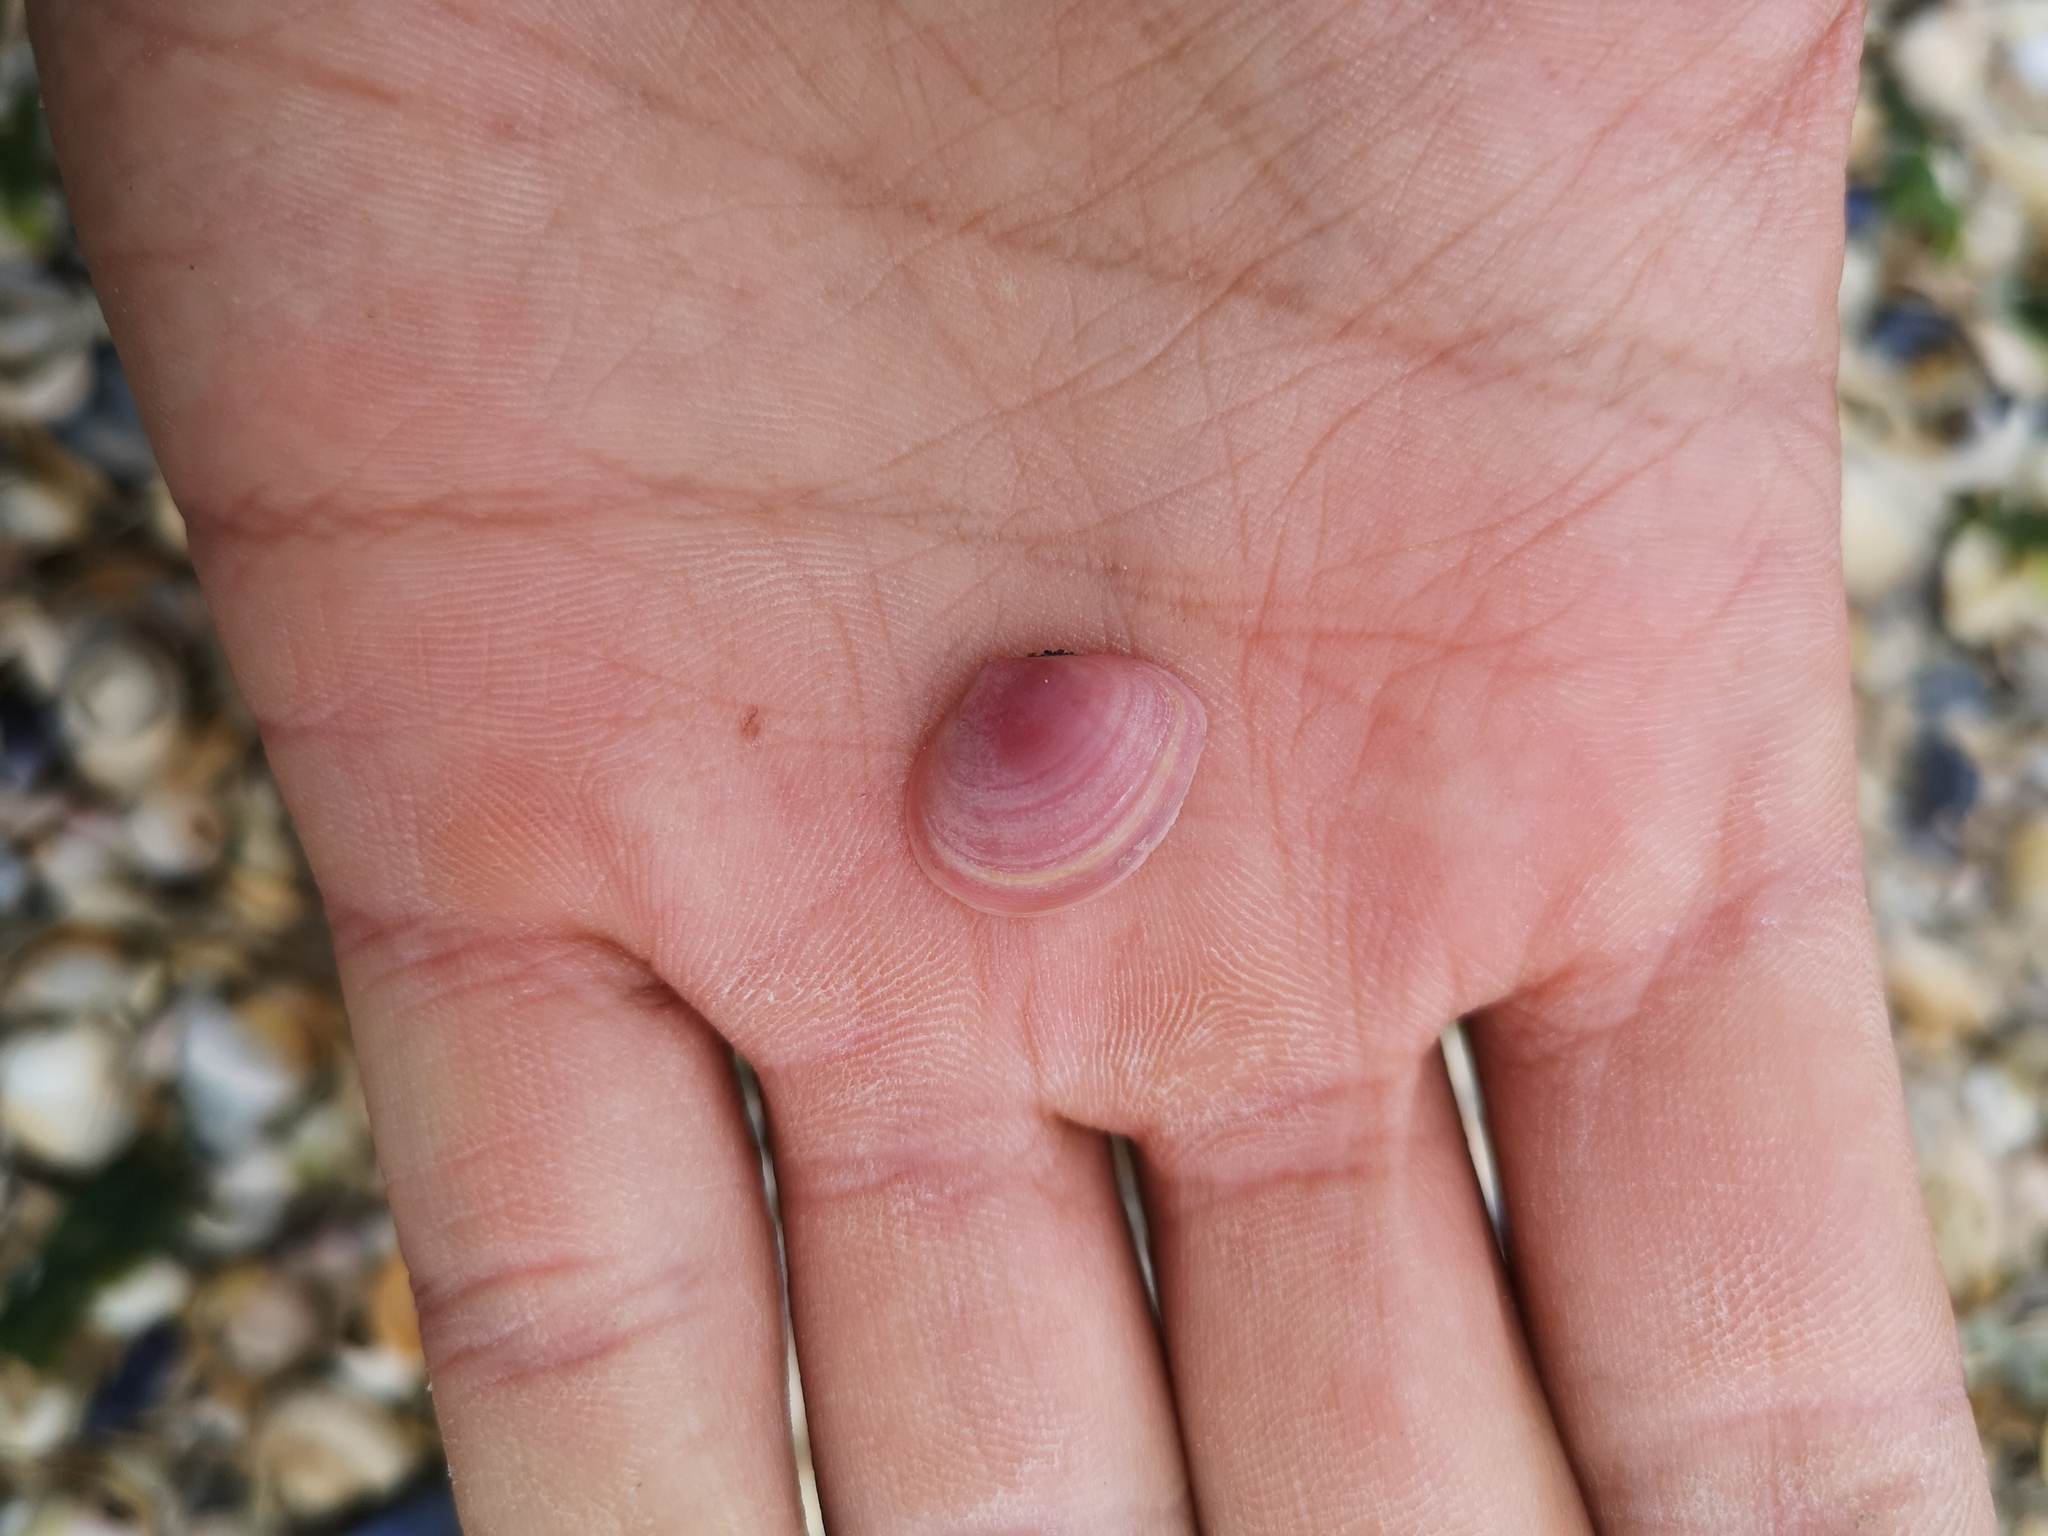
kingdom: Animalia
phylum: Mollusca
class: Bivalvia
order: Cardiida
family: Tellinidae
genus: Macoma
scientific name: Macoma balthica
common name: Baltic tellin
